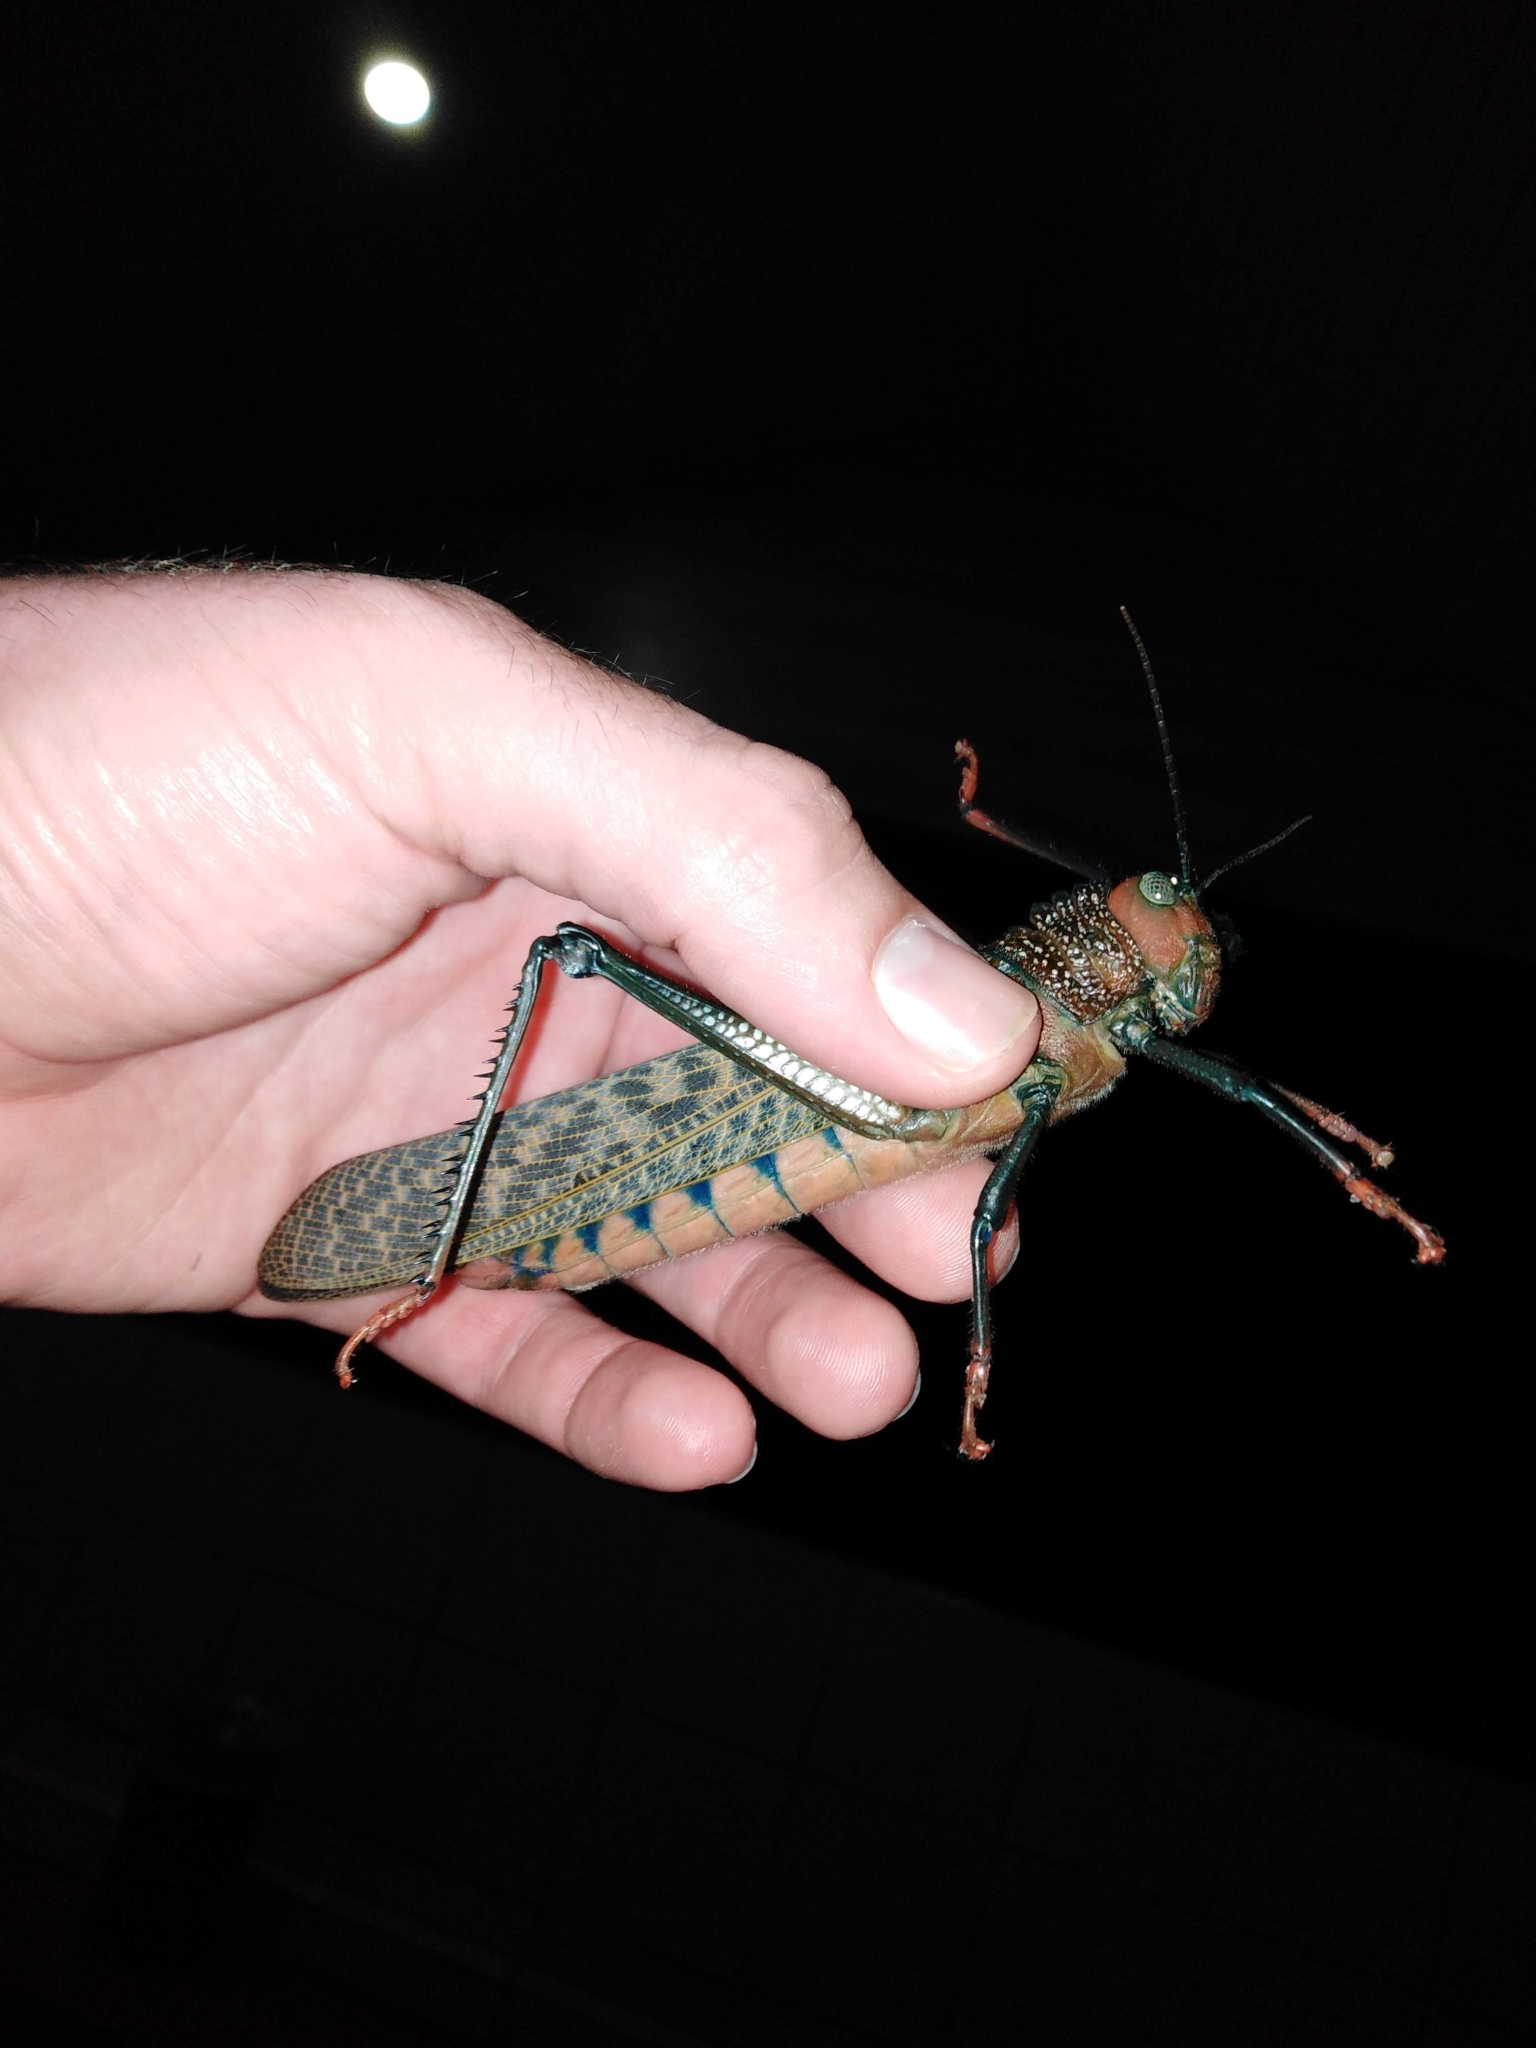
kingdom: Animalia
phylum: Arthropoda
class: Insecta
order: Orthoptera
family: Romaleidae
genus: Tropidacris
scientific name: Tropidacris cristata
